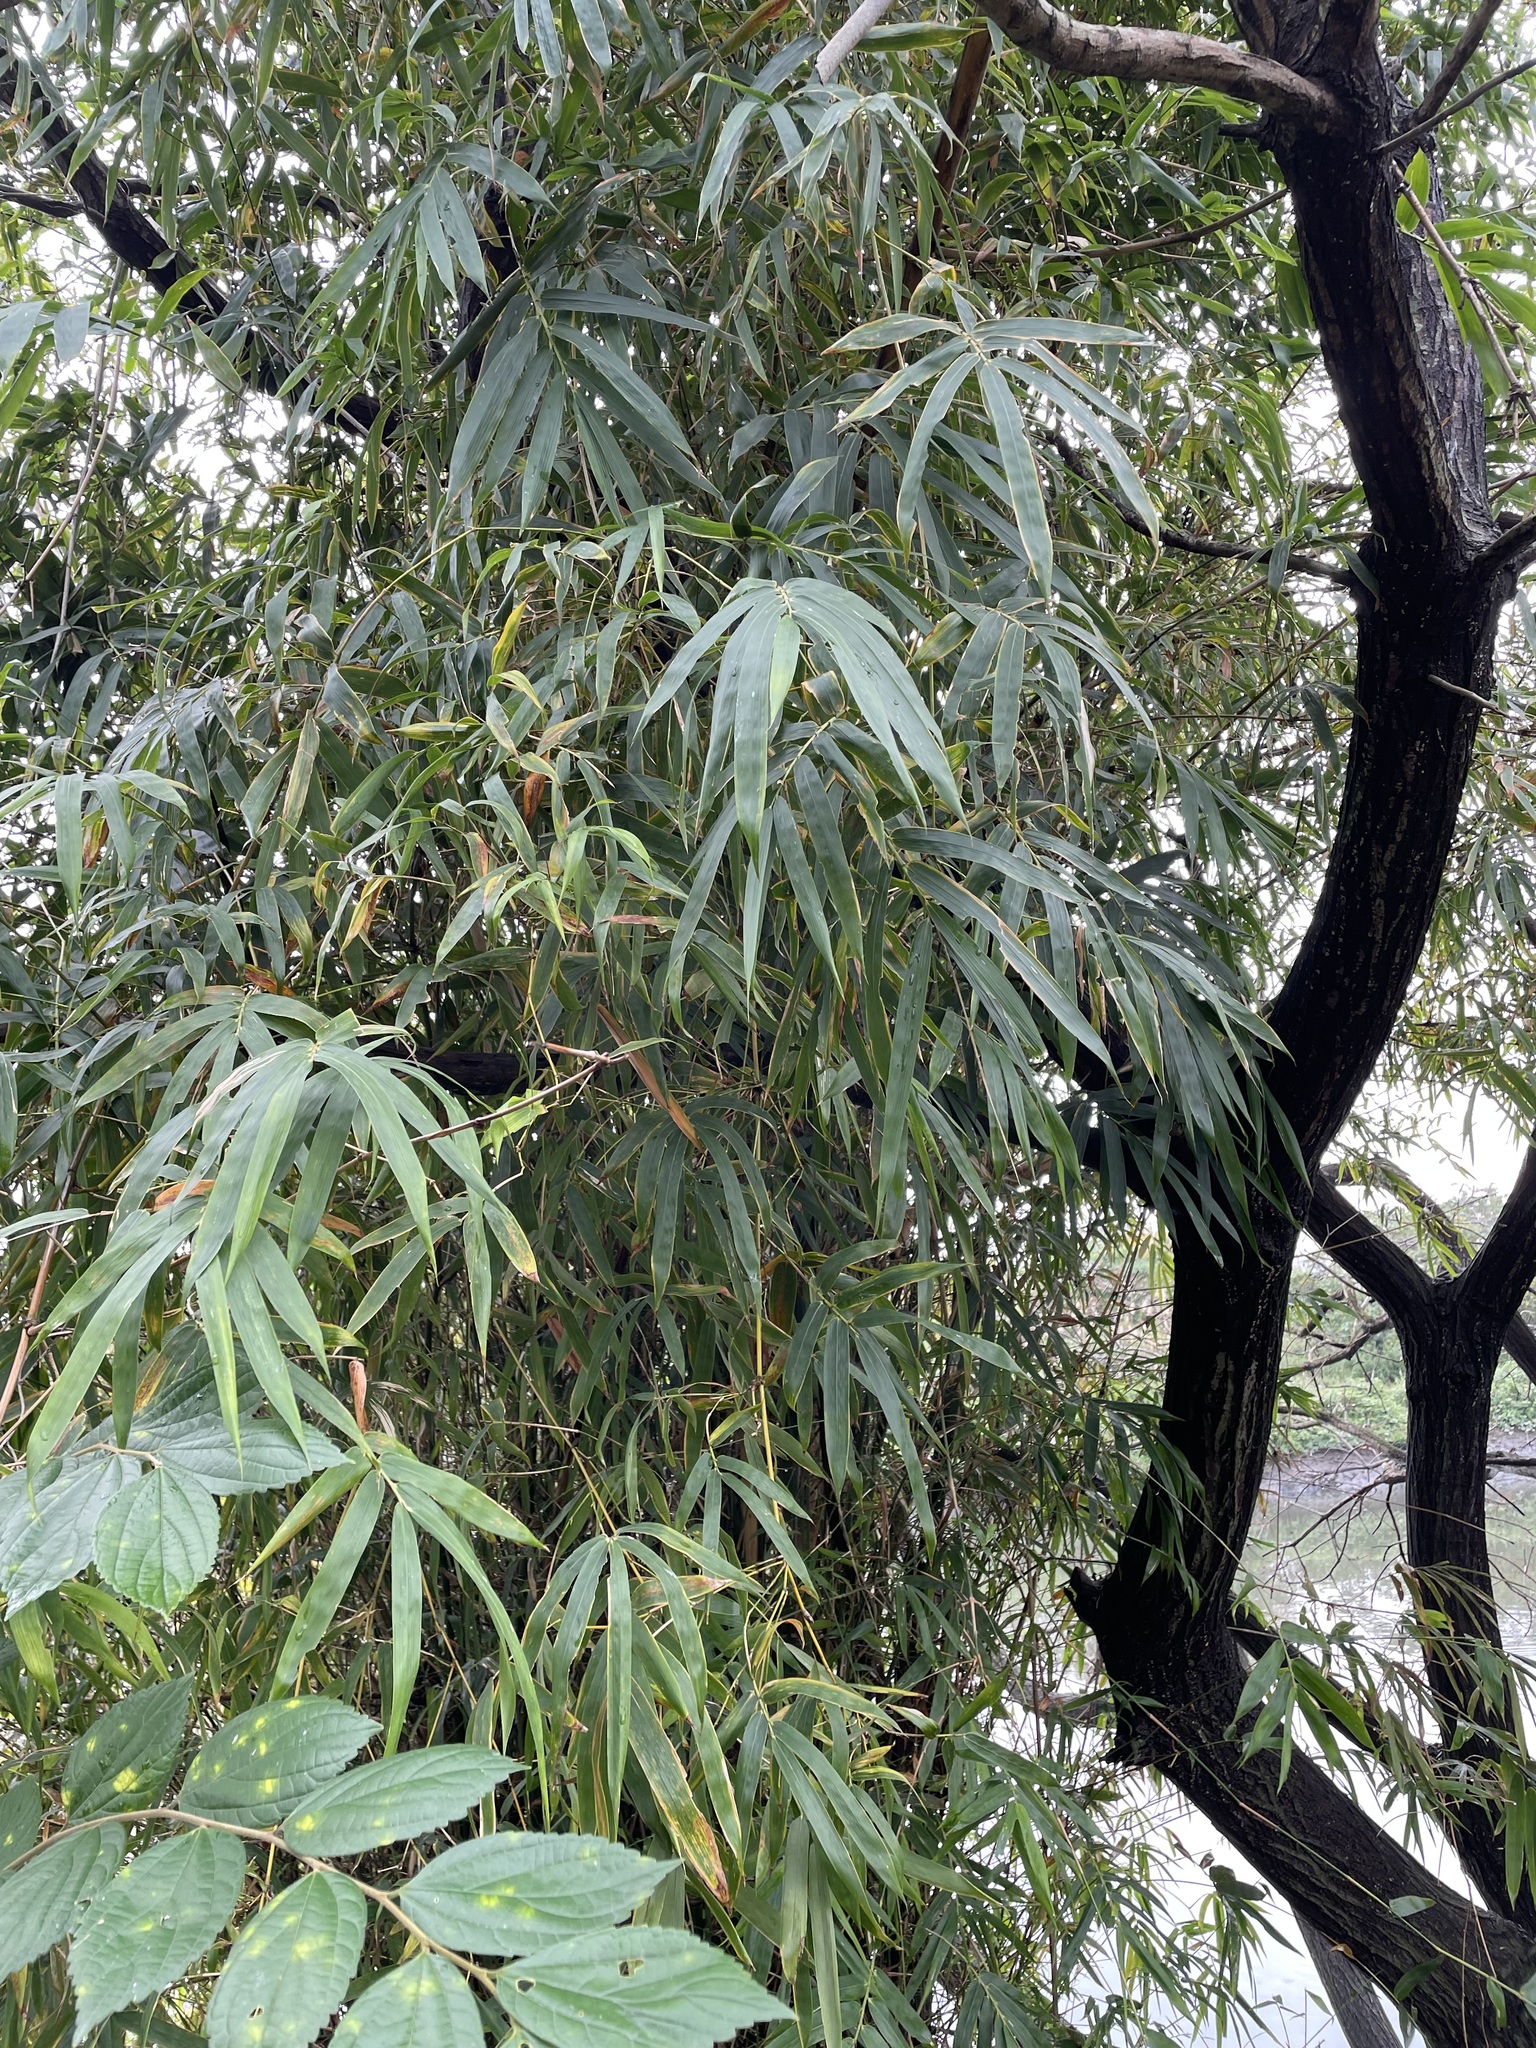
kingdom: Plantae
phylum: Tracheophyta
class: Liliopsida
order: Poales
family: Poaceae
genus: Bambusa
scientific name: Bambusa spinosa
